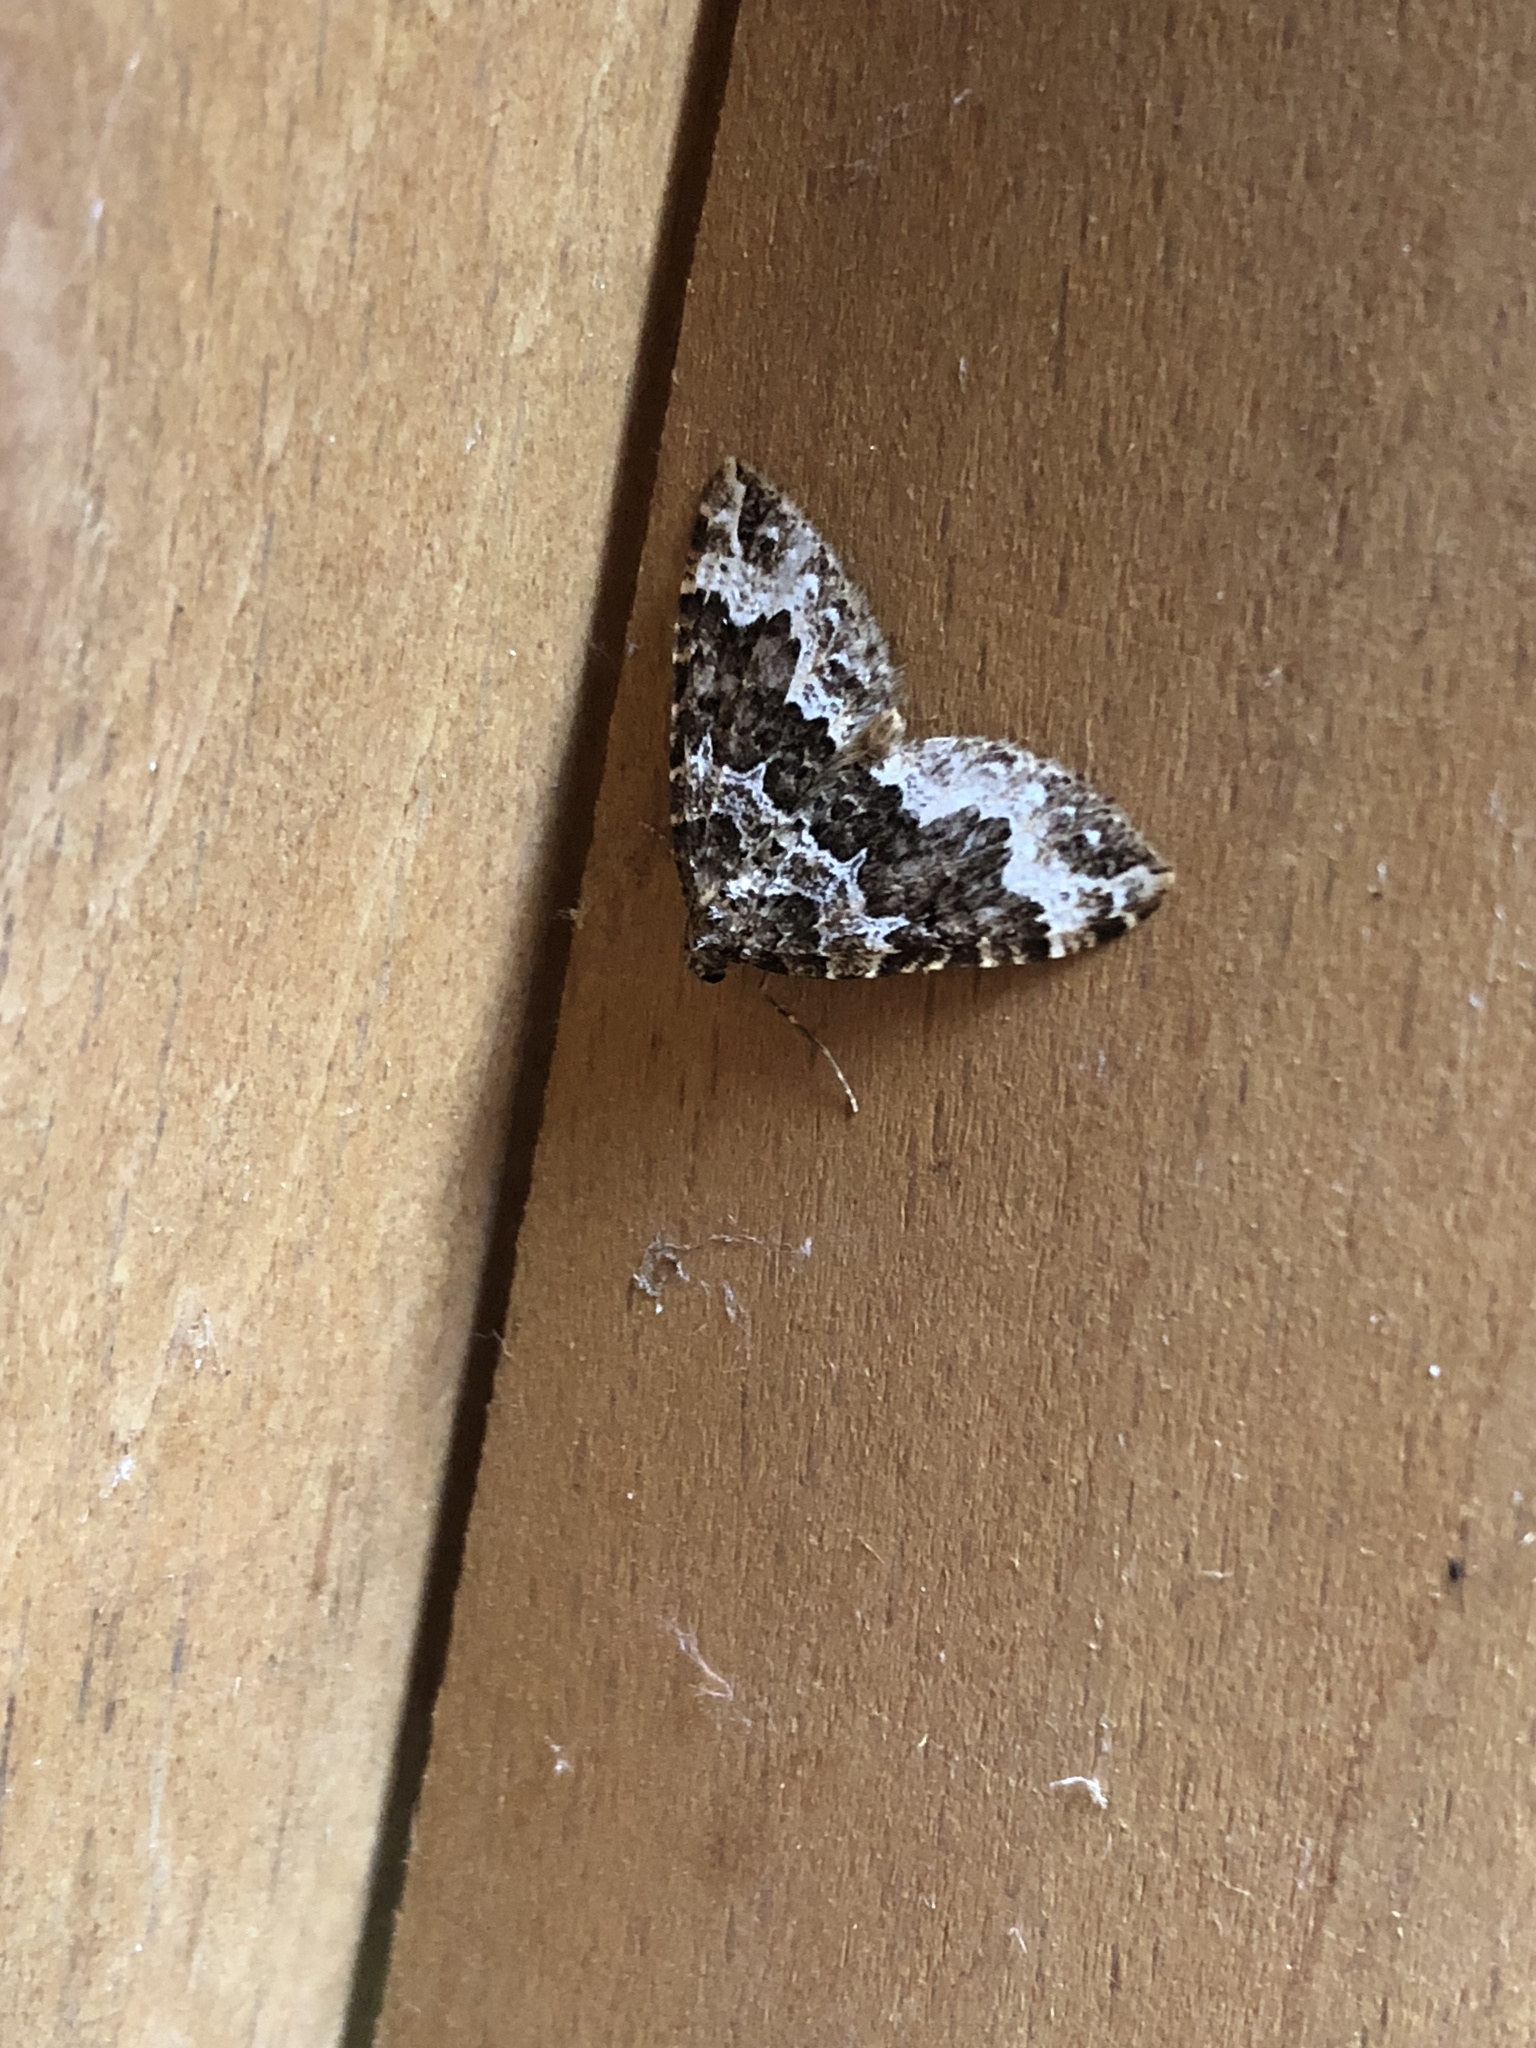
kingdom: Animalia
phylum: Arthropoda
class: Insecta
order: Lepidoptera
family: Geometridae
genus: Lampropteryx
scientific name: Lampropteryx suffumata
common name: Water carpet
